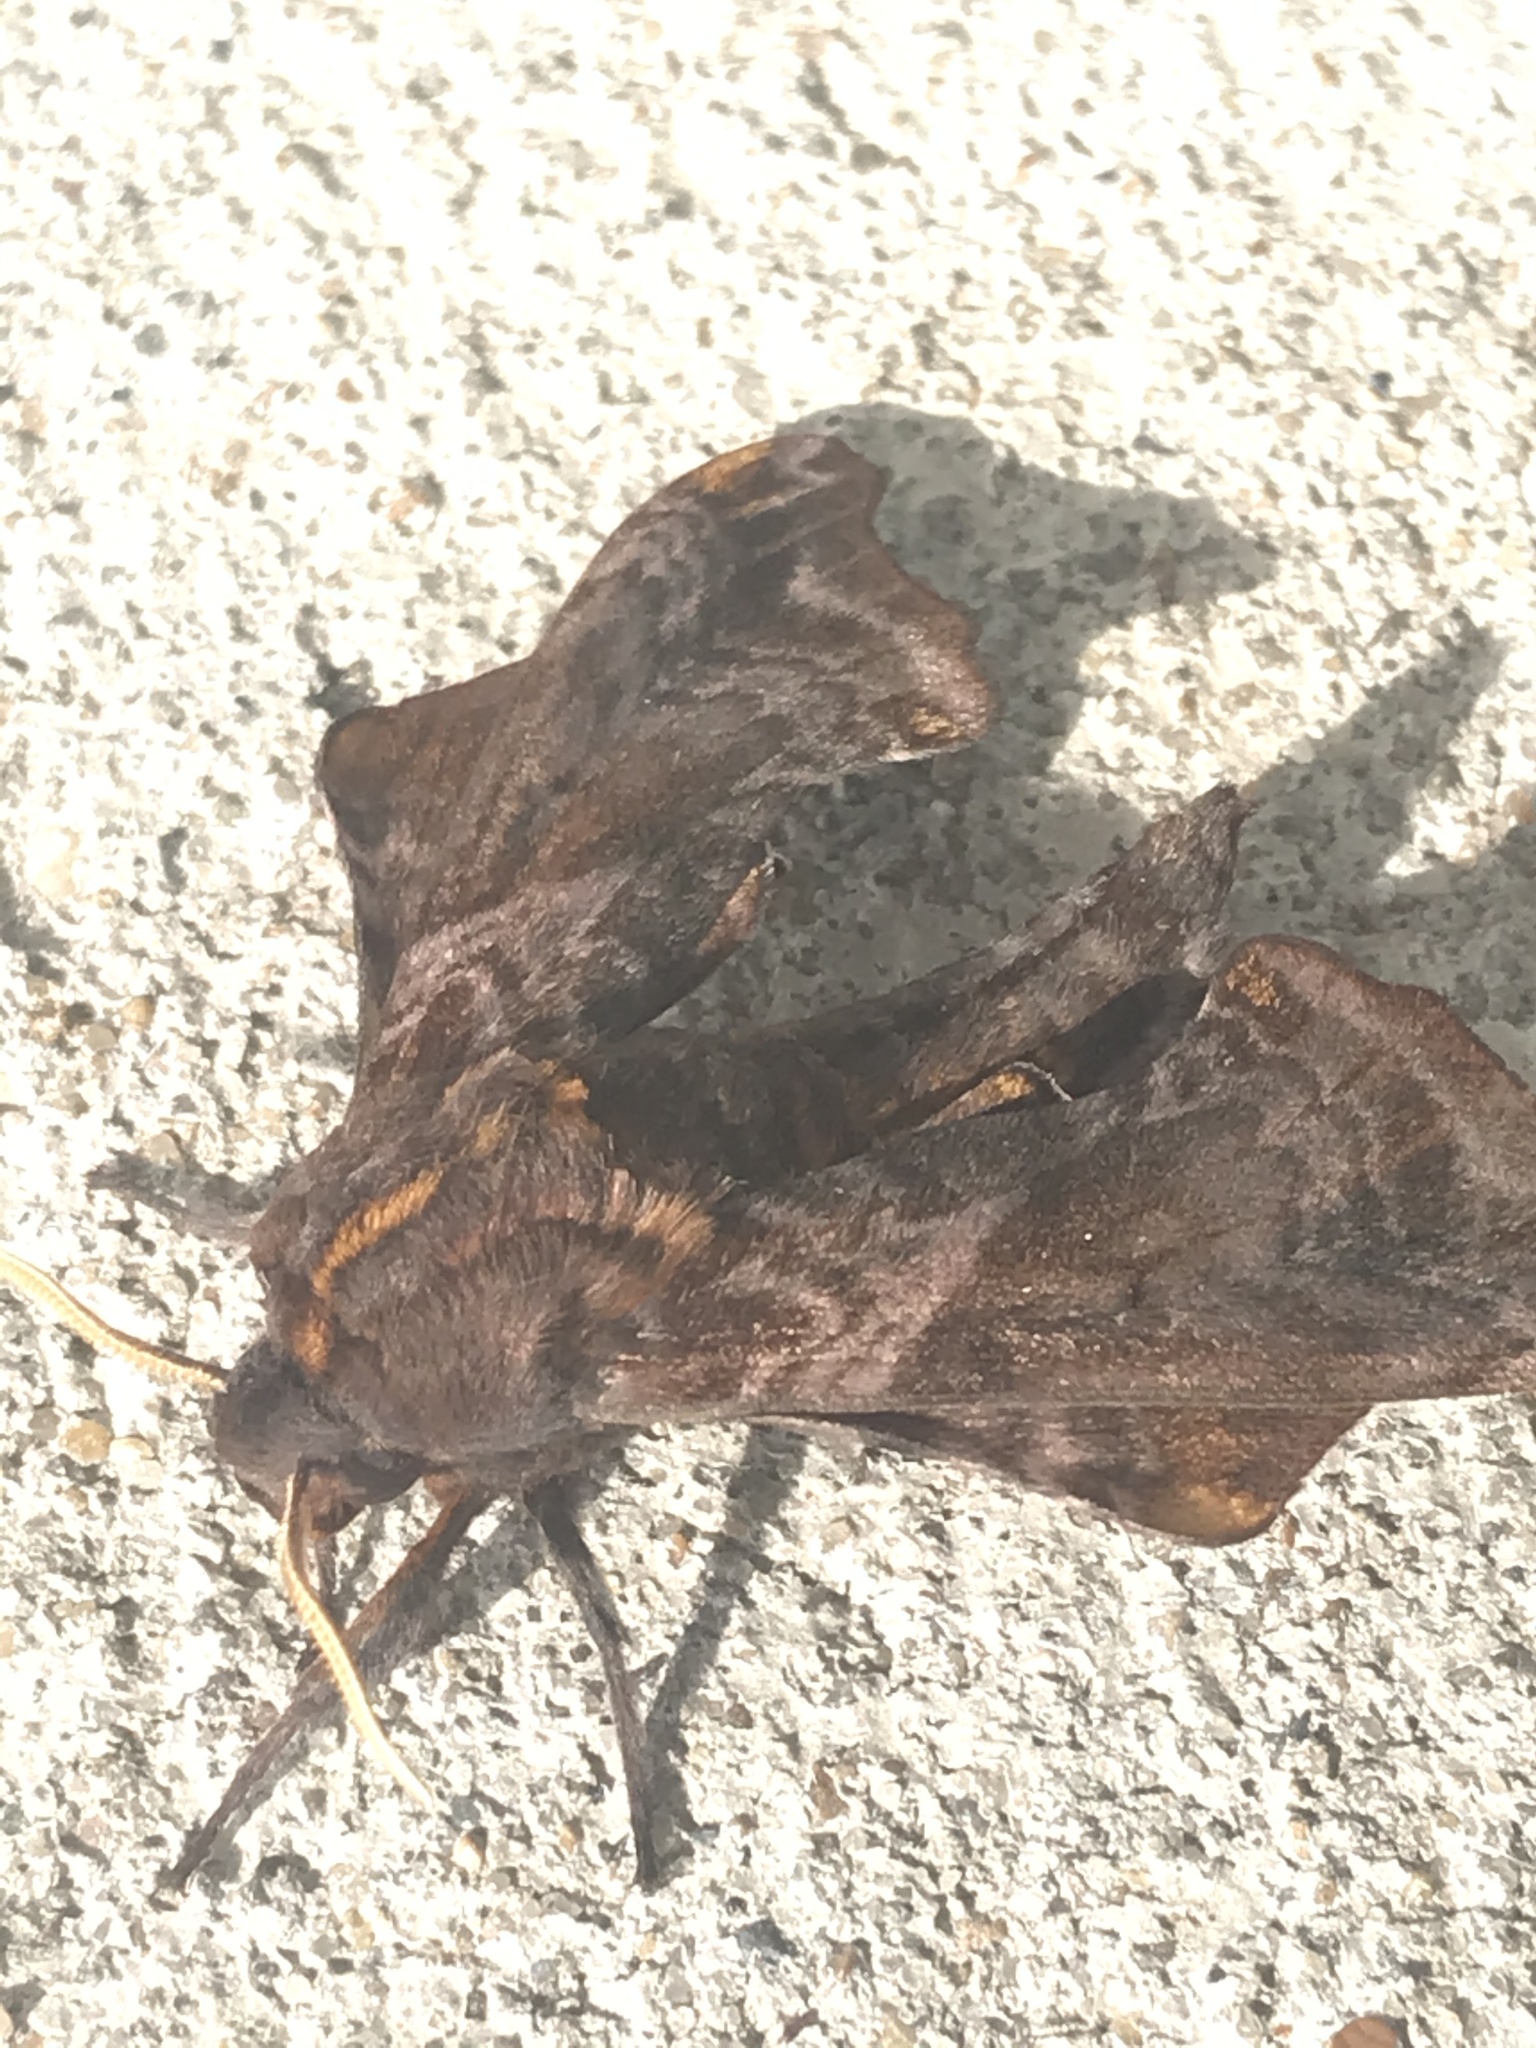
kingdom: Animalia
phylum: Arthropoda
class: Insecta
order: Lepidoptera
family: Sphingidae
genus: Paonias
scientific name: Paonias myops
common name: Small-eyed sphinx
